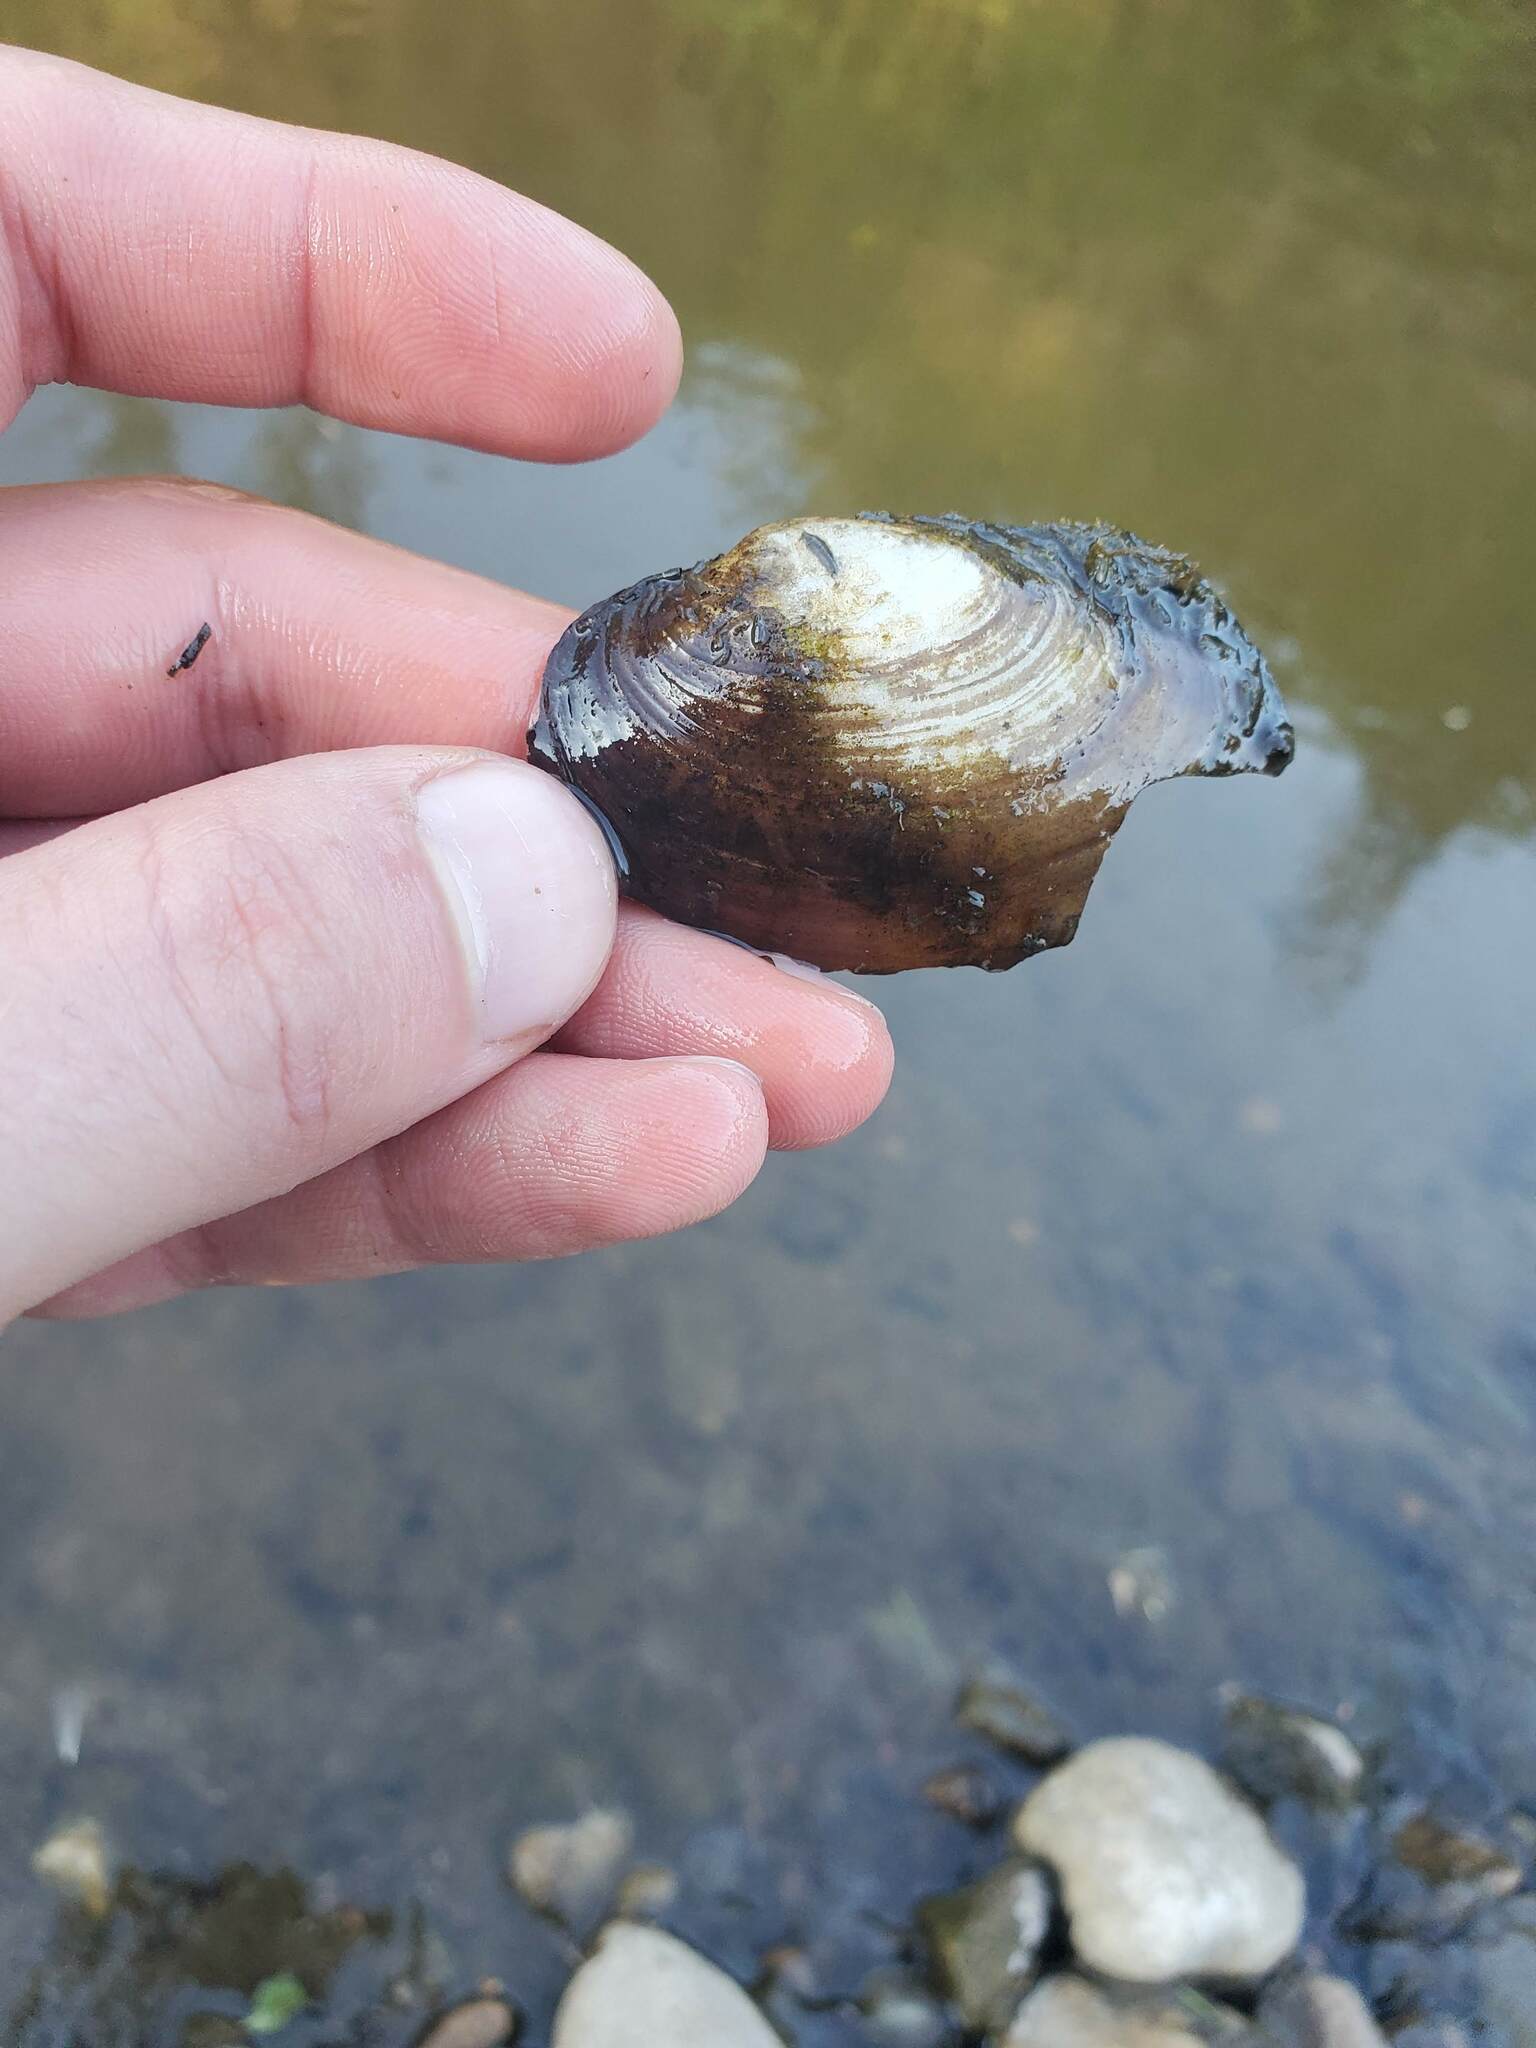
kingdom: Animalia
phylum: Mollusca
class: Bivalvia
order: Unionida
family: Unionidae
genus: Lampsilis
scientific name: Lampsilis siliquoidea
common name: Fatmucket
